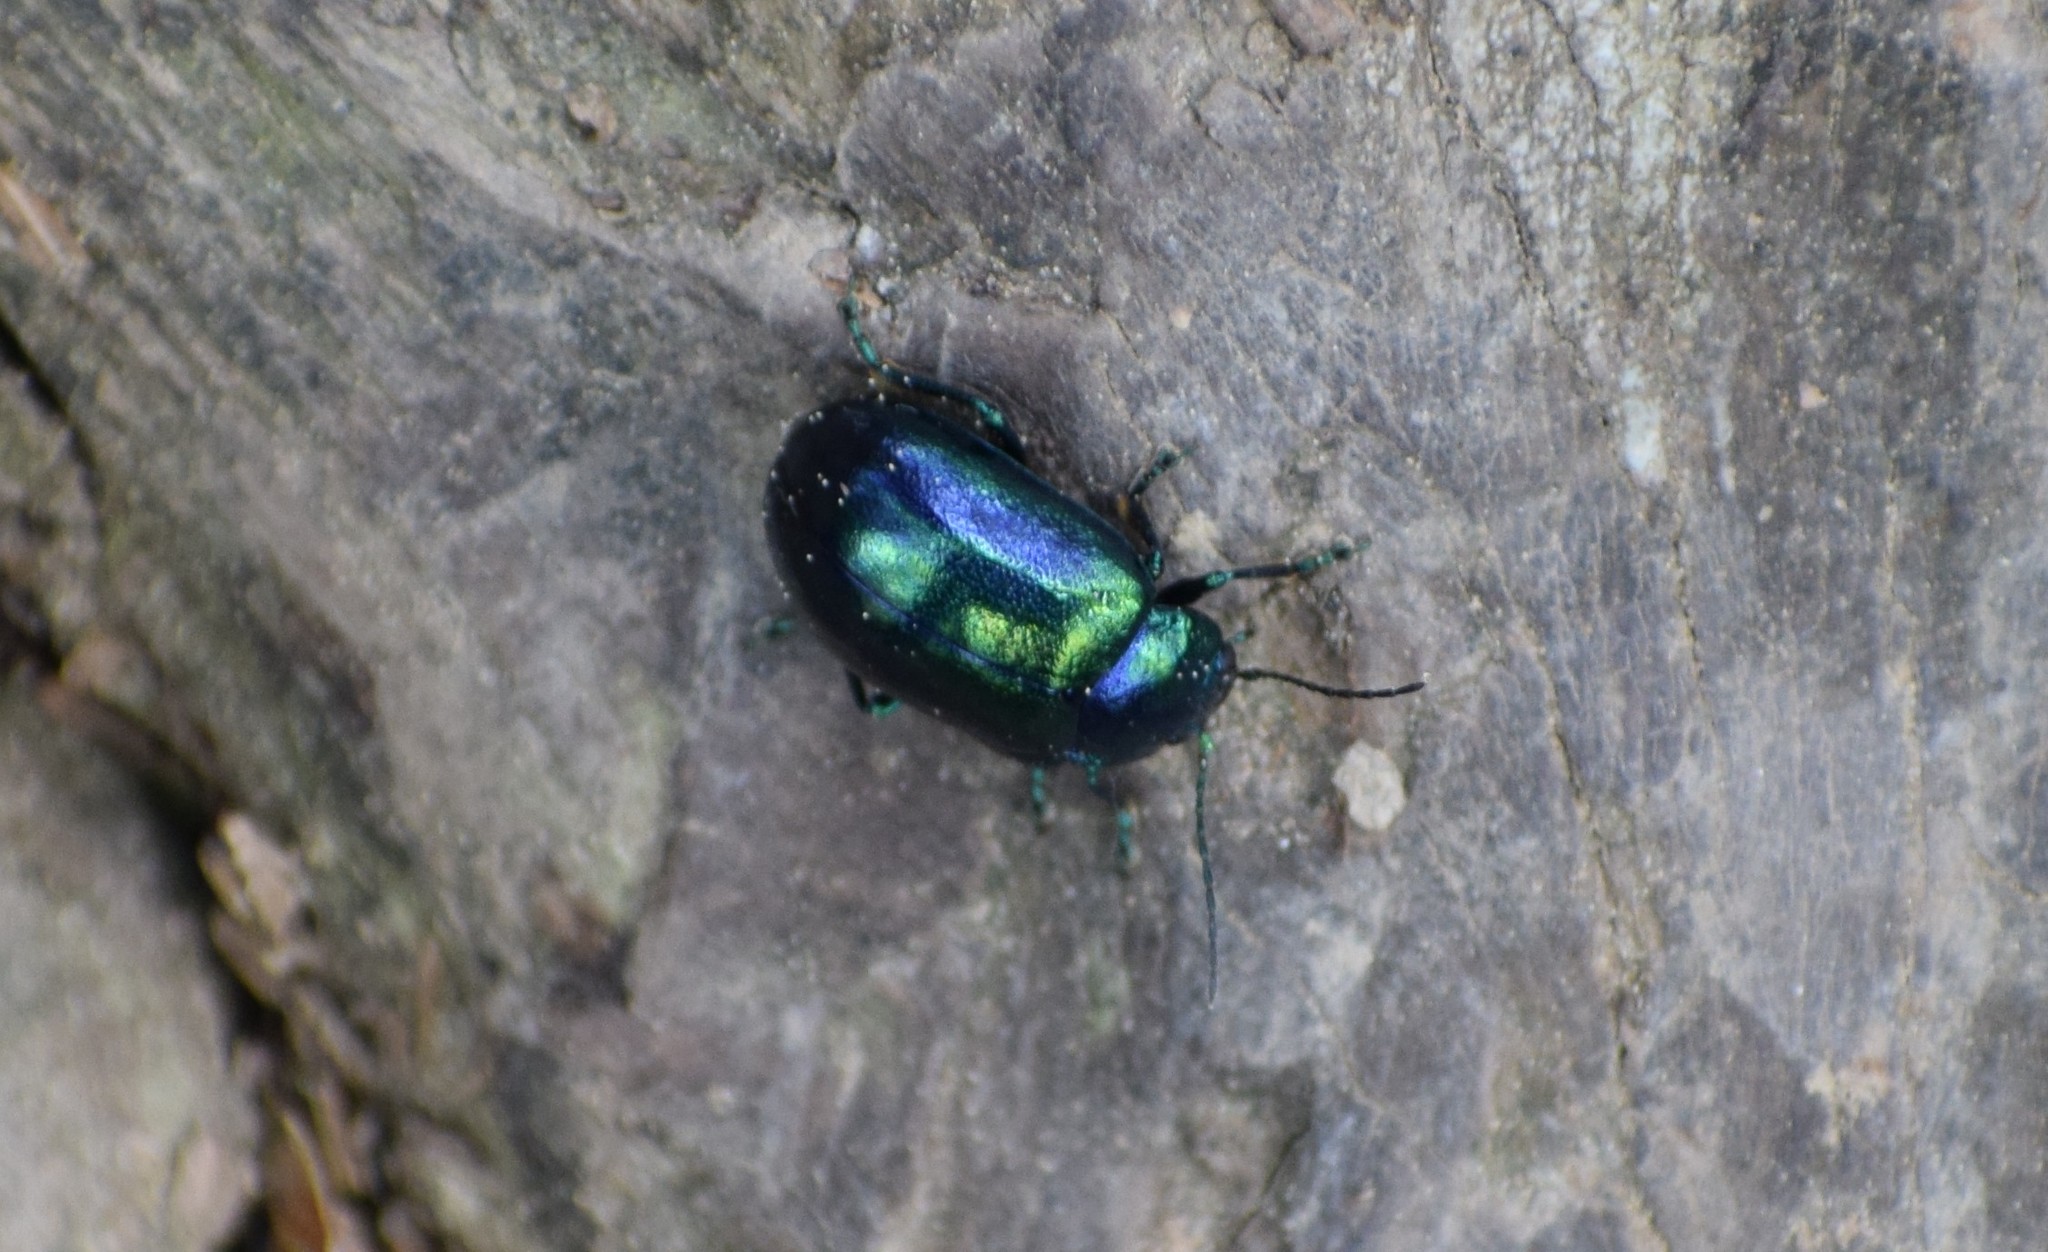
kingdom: Animalia
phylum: Arthropoda
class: Insecta
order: Coleoptera
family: Chrysomelidae
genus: Oreina
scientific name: Oreina
